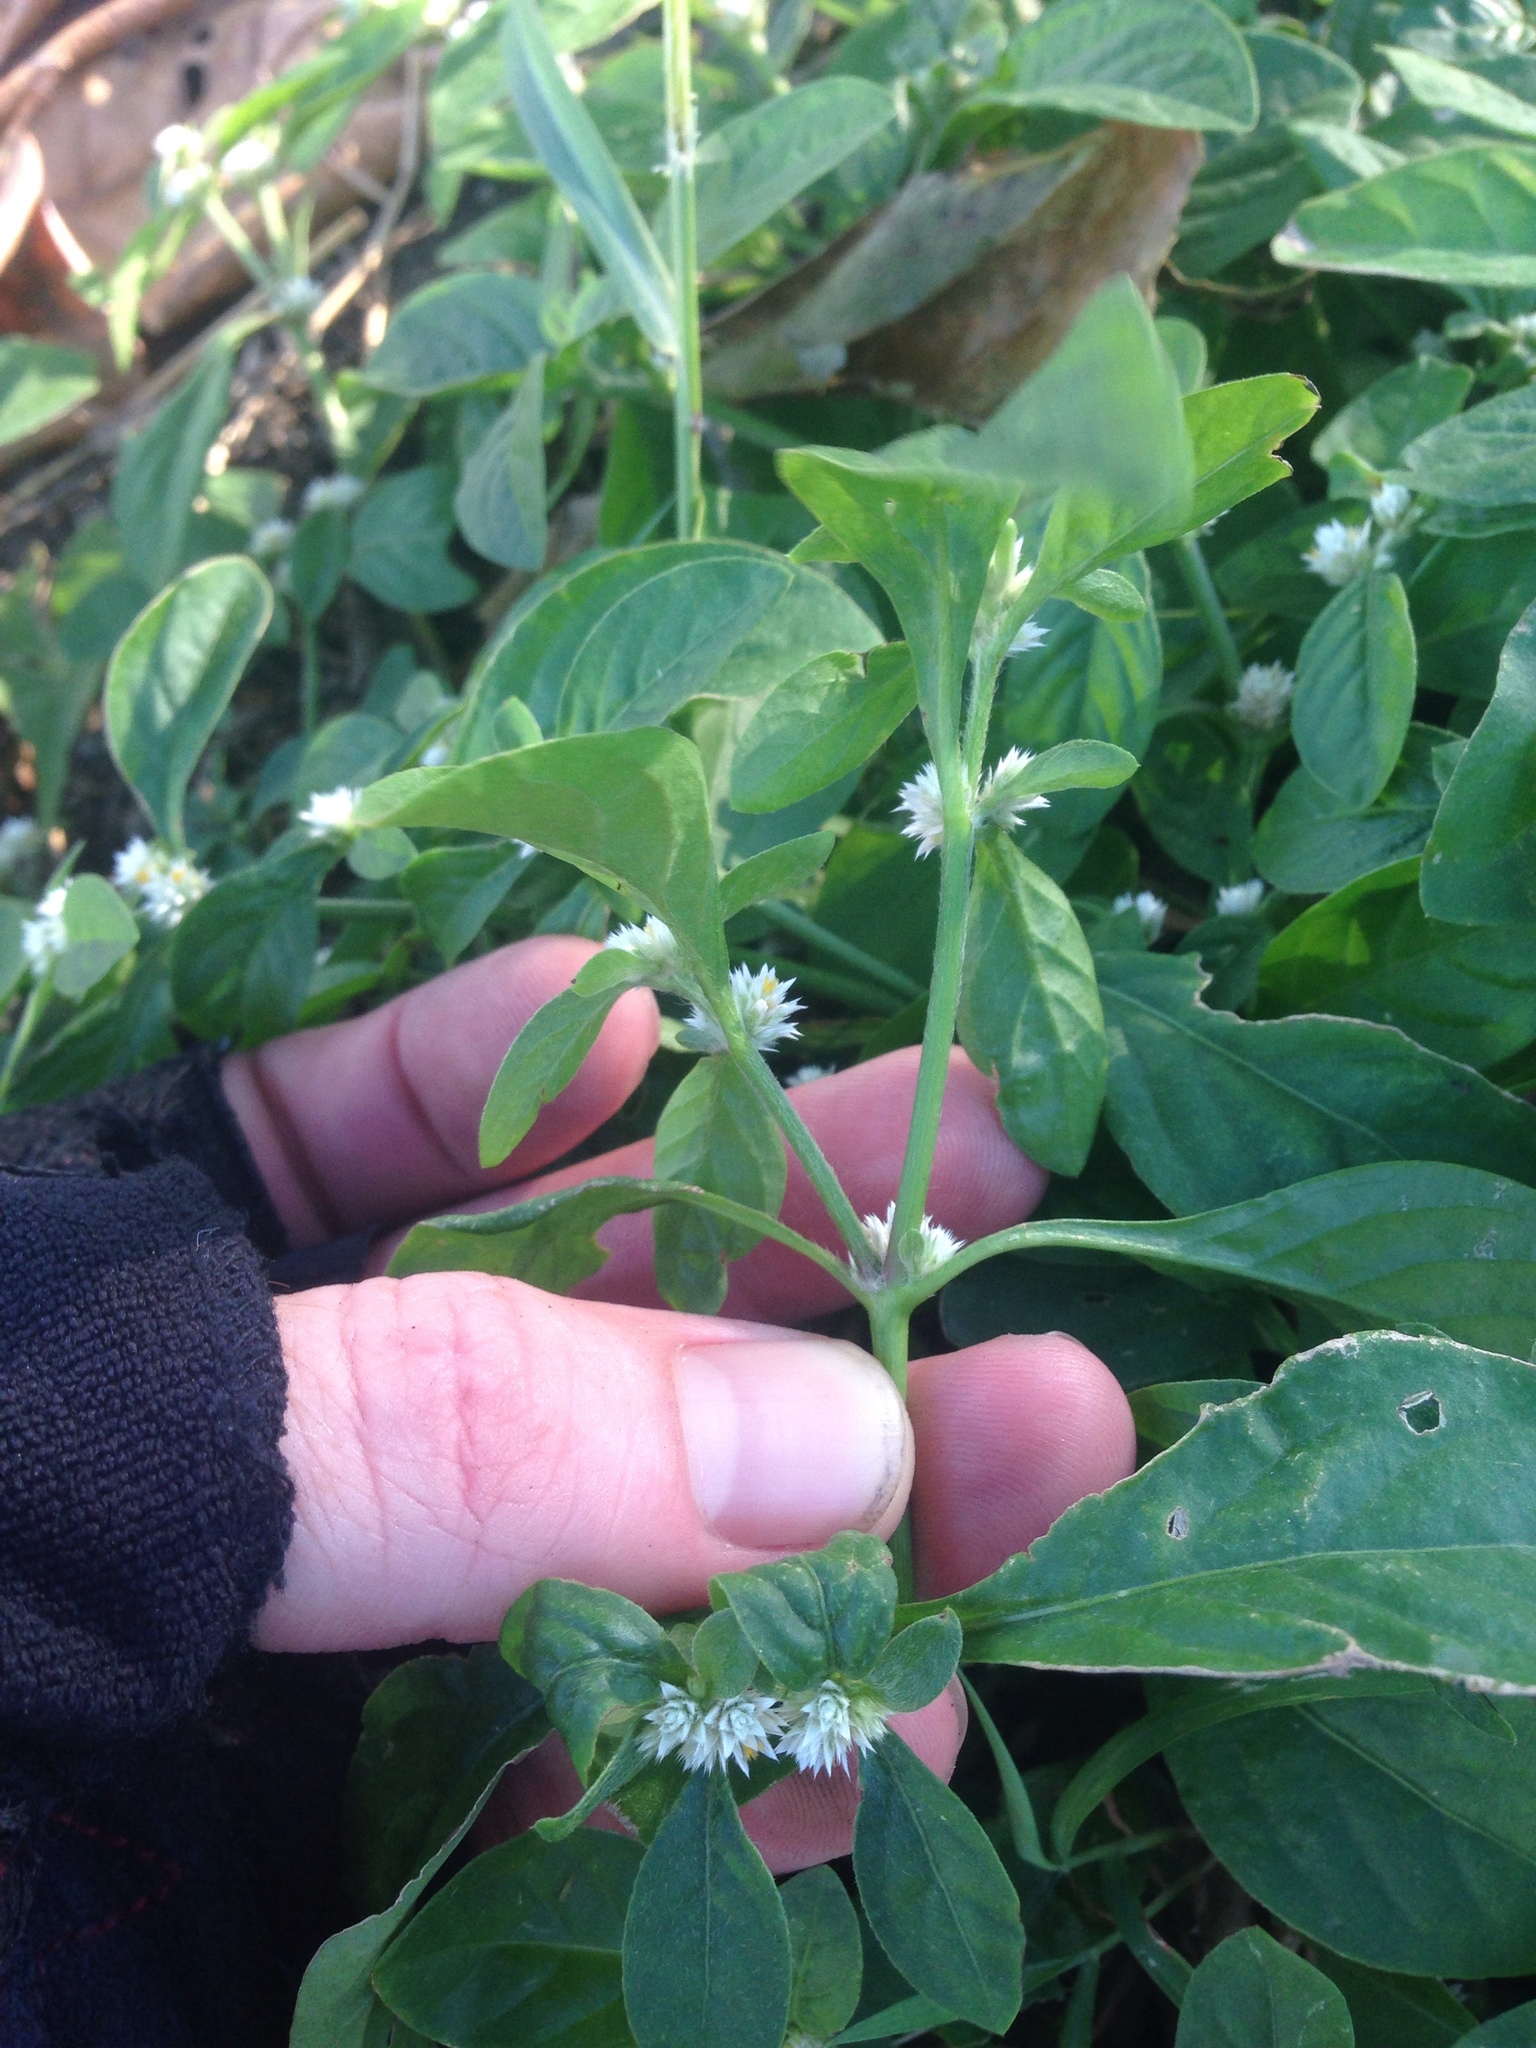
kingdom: Plantae
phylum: Tracheophyta
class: Magnoliopsida
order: Caryophyllales
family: Amaranthaceae
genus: Alternanthera
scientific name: Alternanthera bettzickiana
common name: Calico-plant
